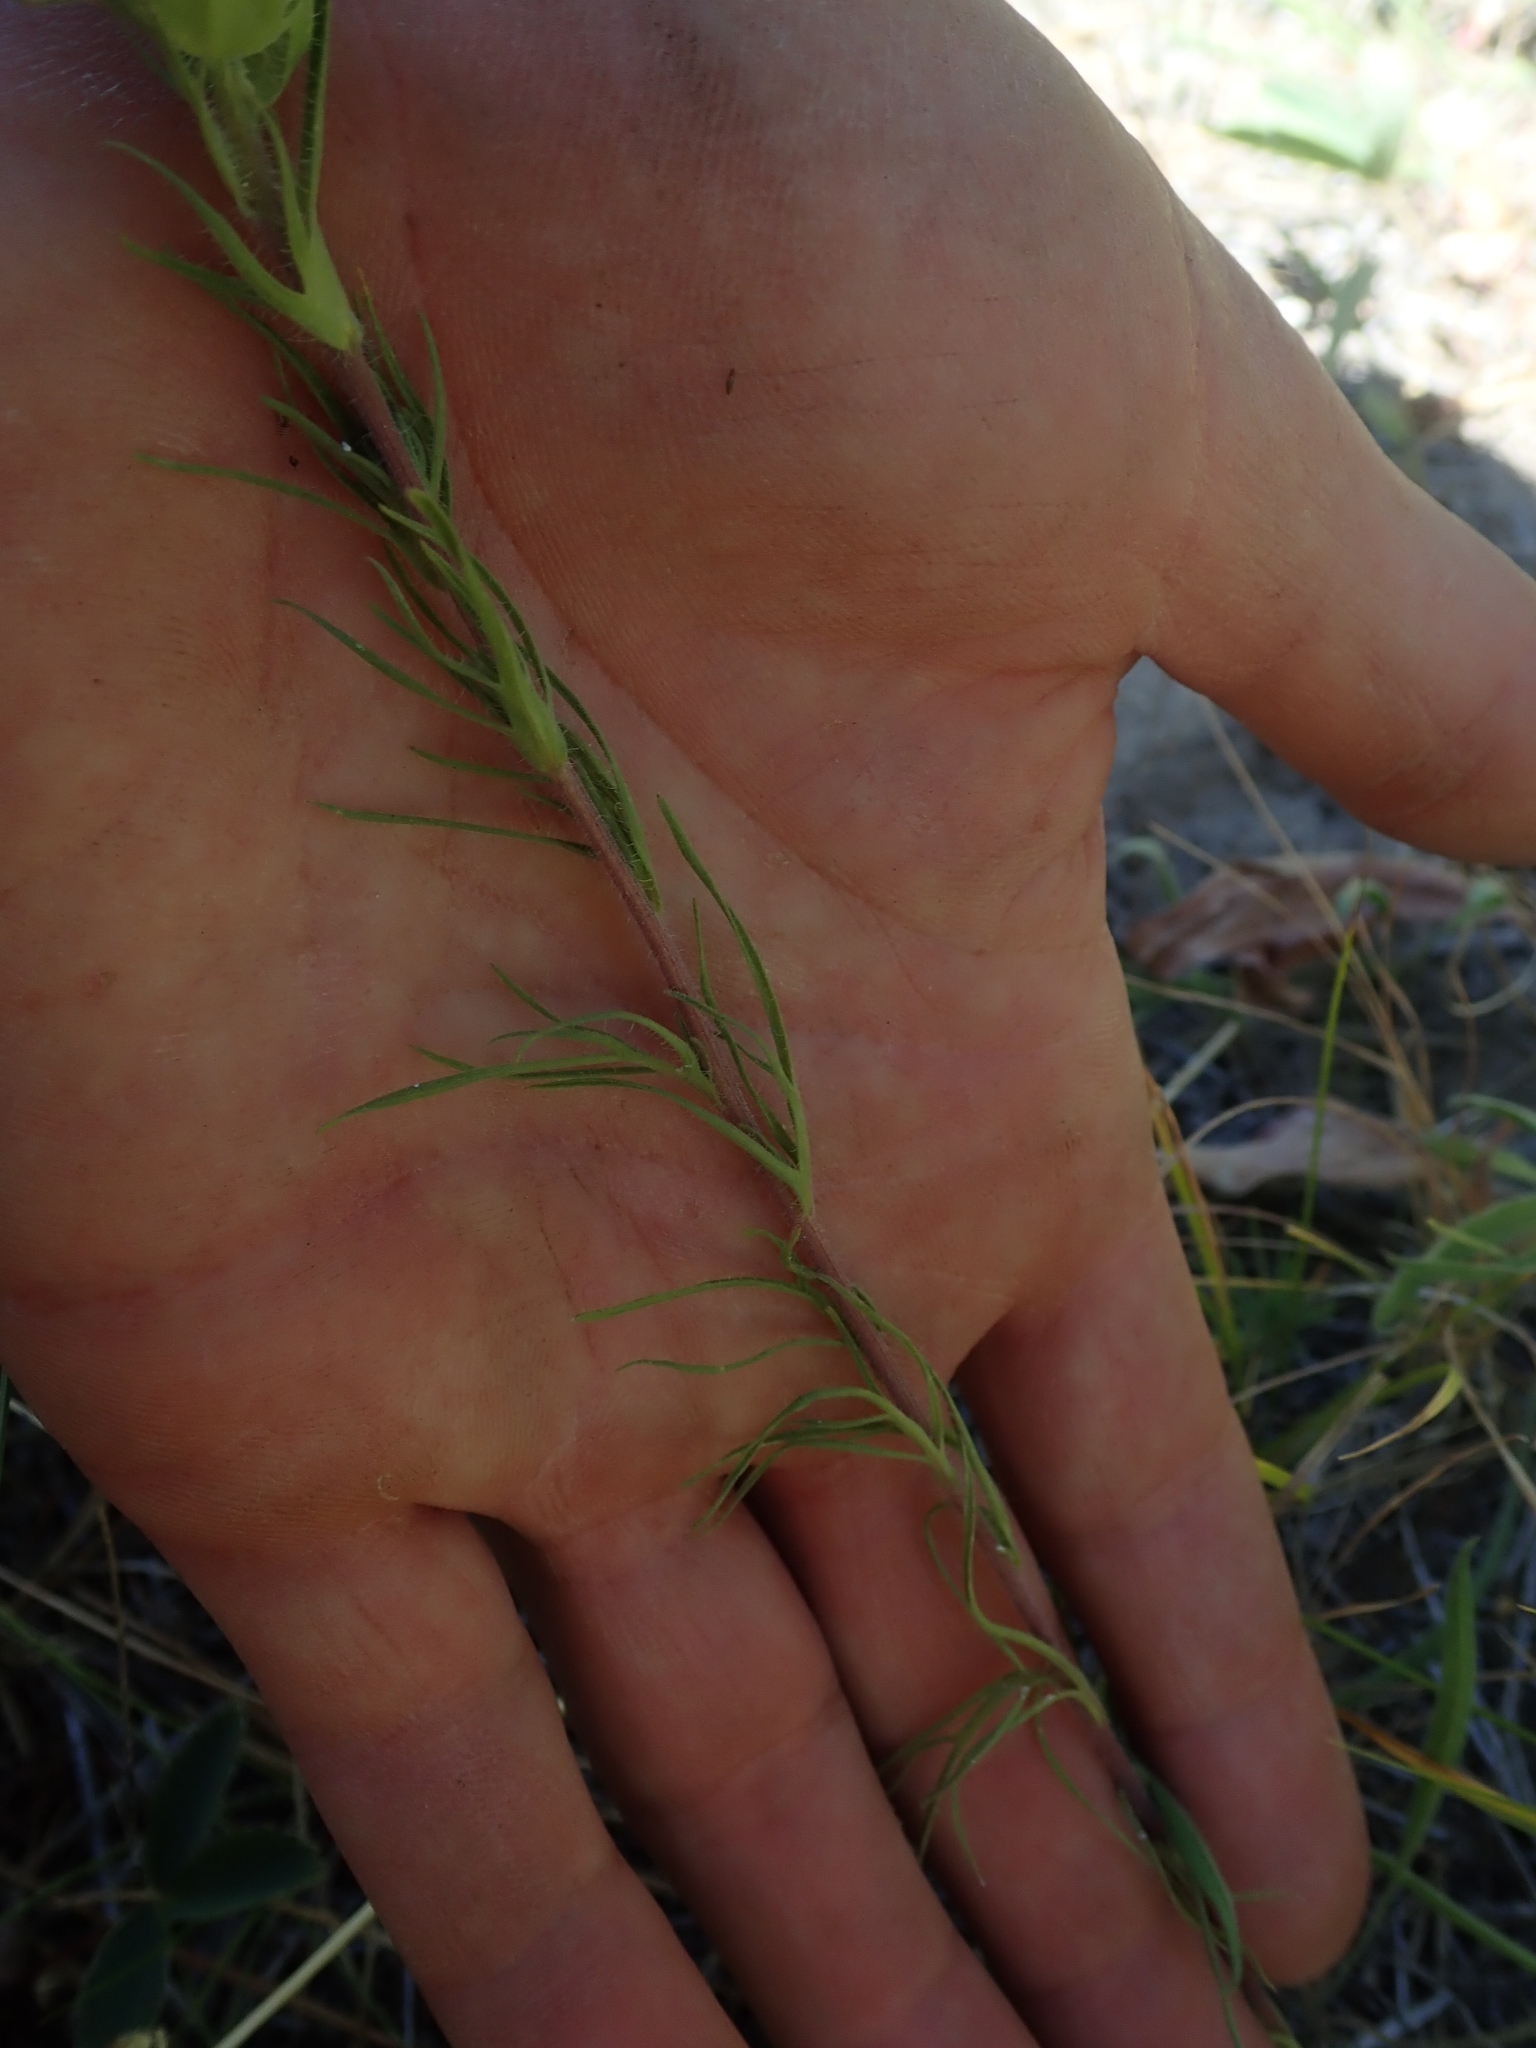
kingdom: Plantae
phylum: Tracheophyta
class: Magnoliopsida
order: Lamiales
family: Orobanchaceae
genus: Orthocarpus
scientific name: Orthocarpus tenuifolius
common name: Thin-leaved owl's-clover
